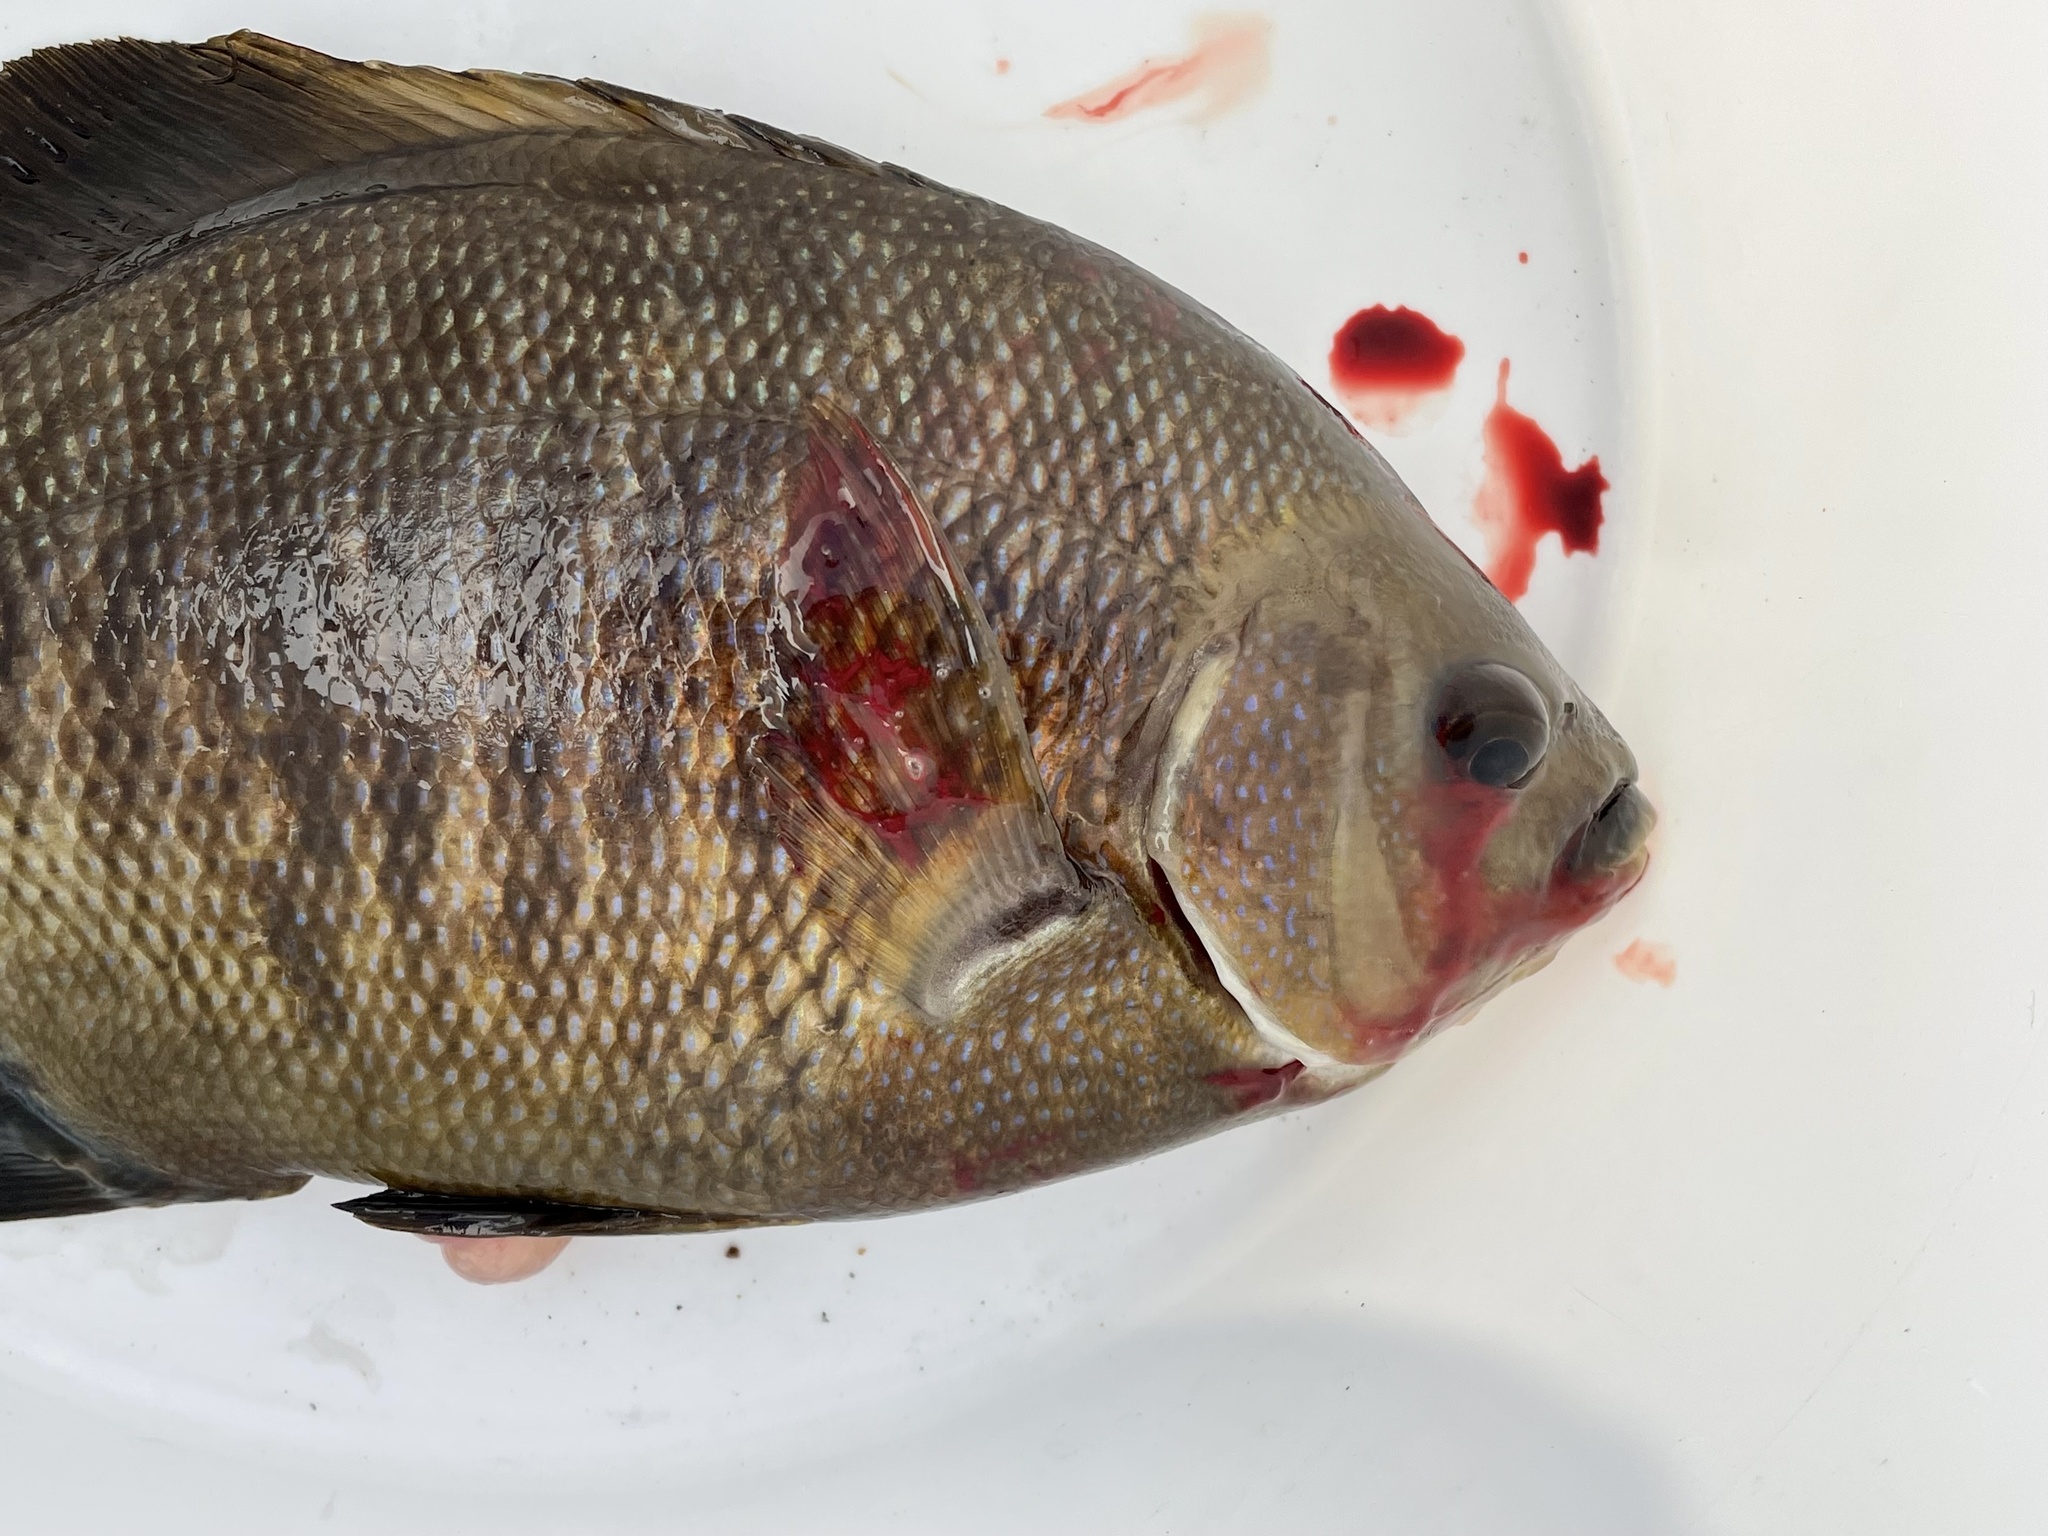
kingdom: Animalia
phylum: Chordata
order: Perciformes
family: Embiotocidae
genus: Embiotoca
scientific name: Embiotoca jacksoni
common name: Black perch
